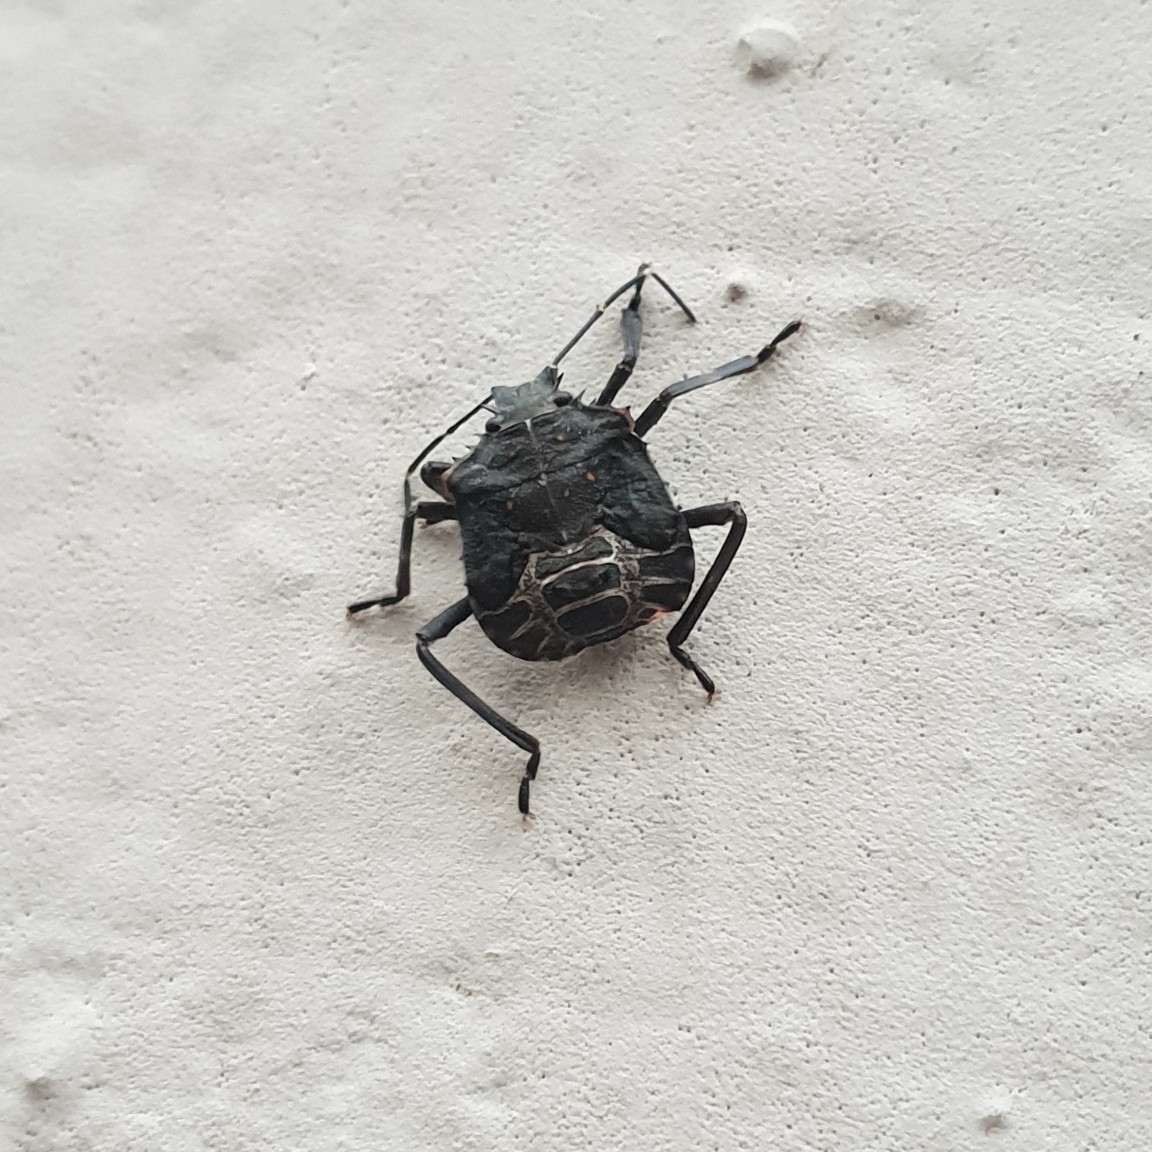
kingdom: Animalia
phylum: Arthropoda
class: Insecta
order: Hemiptera
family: Pentatomidae
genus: Halyomorpha
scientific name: Halyomorpha halys
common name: Brown marmorated stink bug
